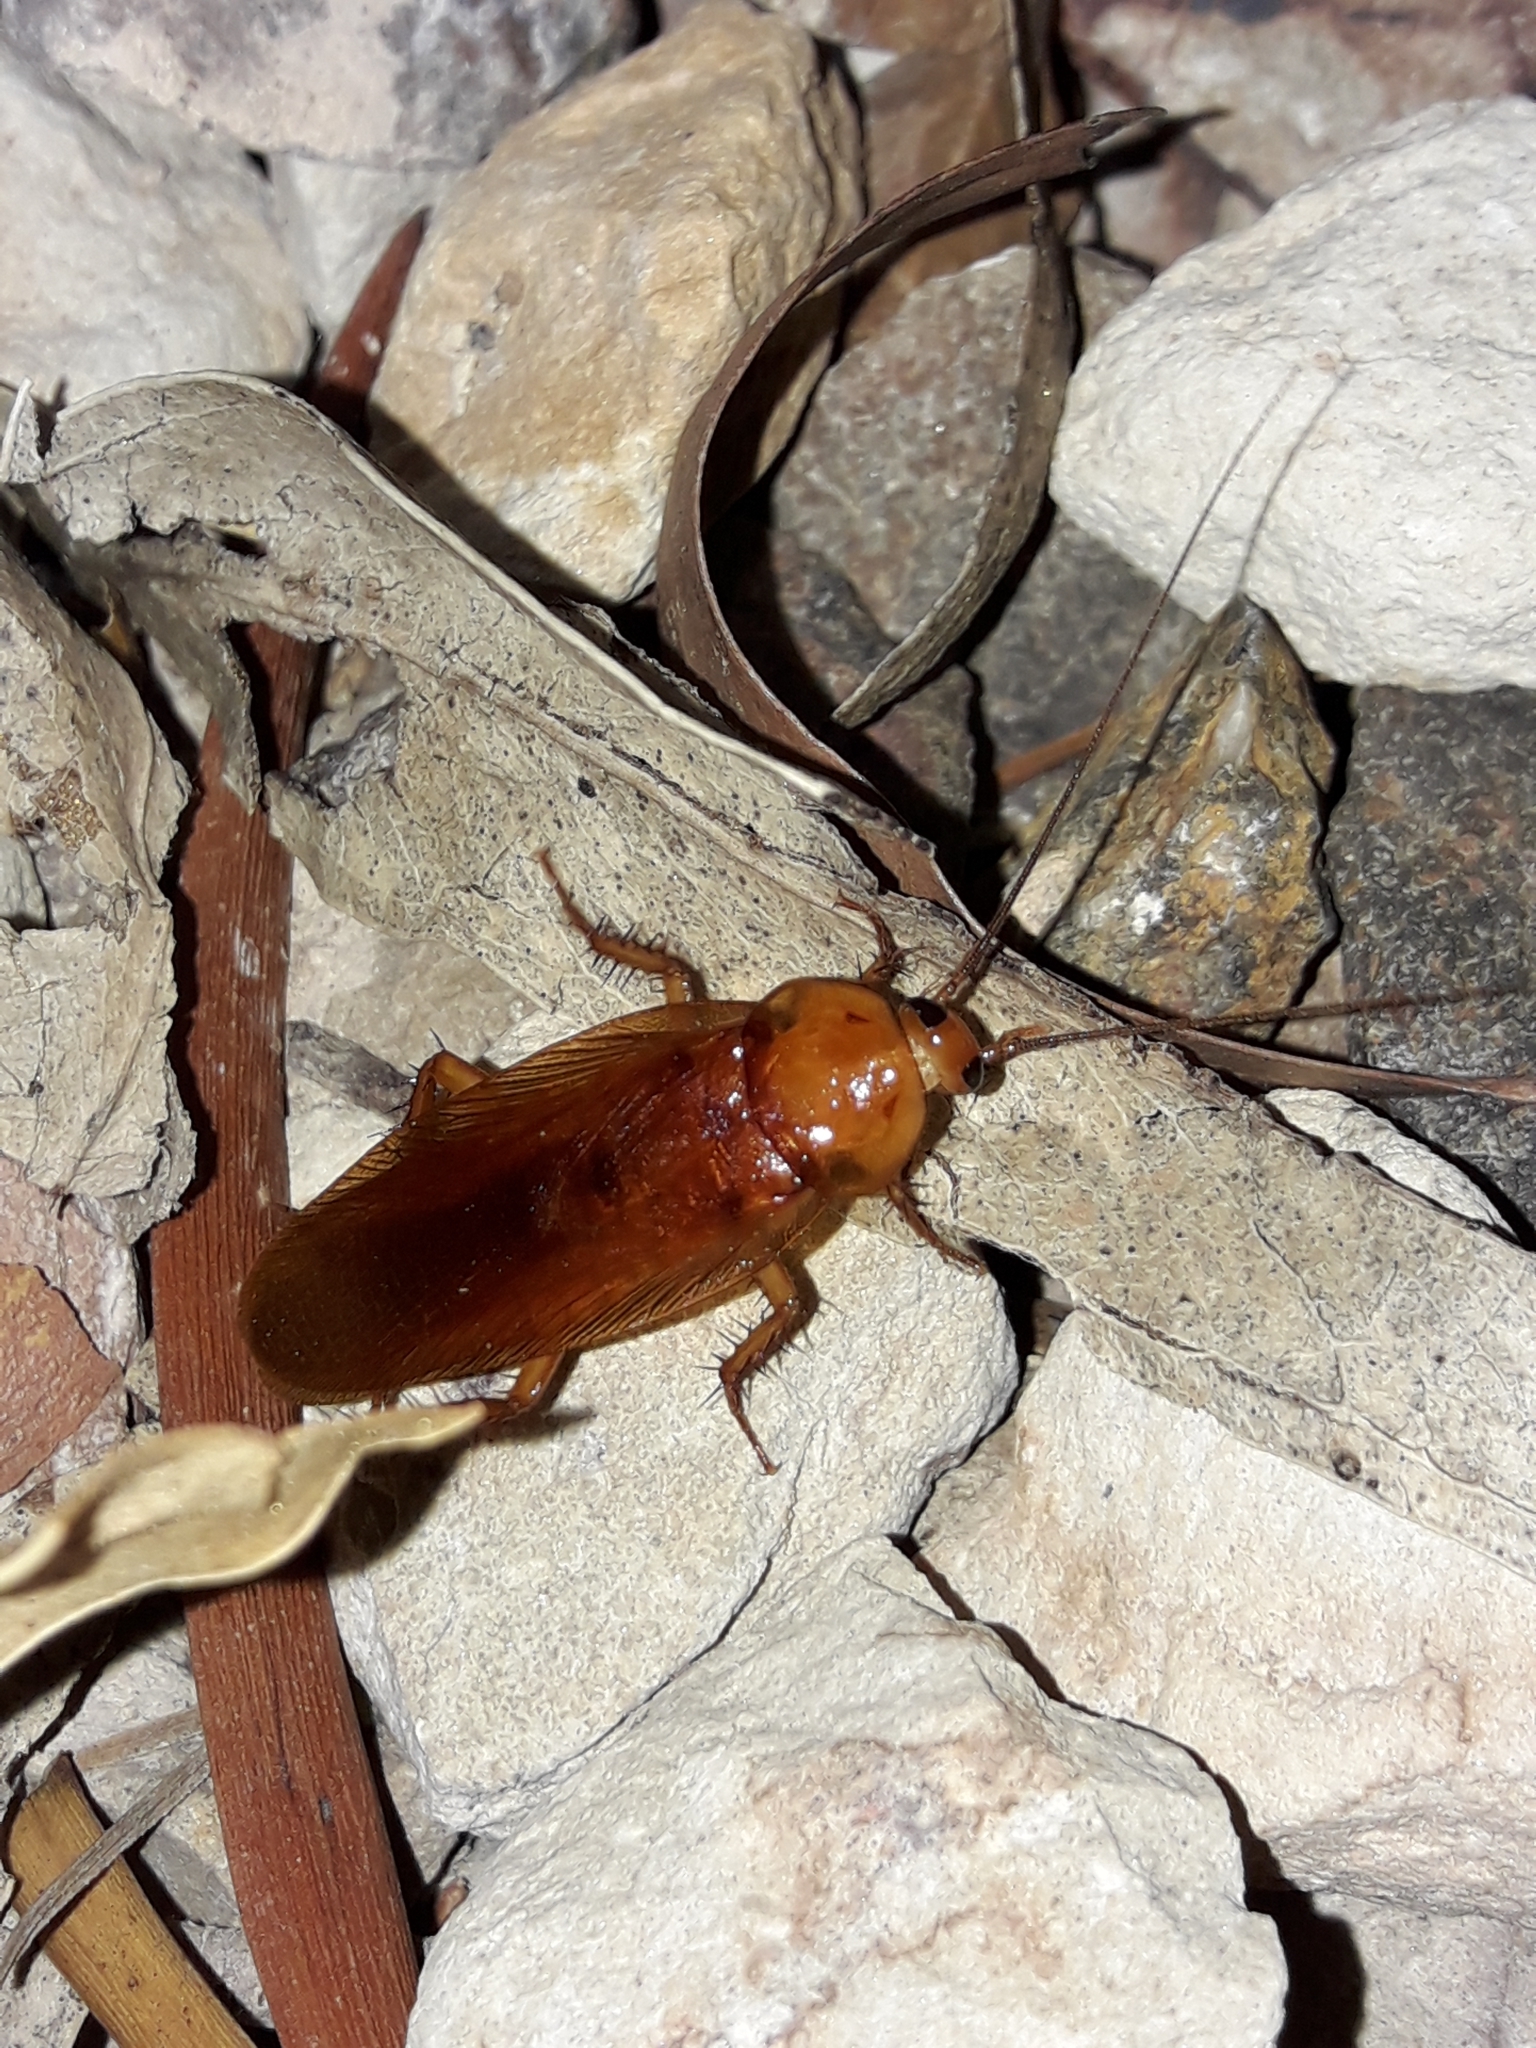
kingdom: Animalia
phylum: Arthropoda
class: Insecta
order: Blattodea
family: Ectobiidae
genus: Neotemnopteryx
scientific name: Neotemnopteryx fulva
